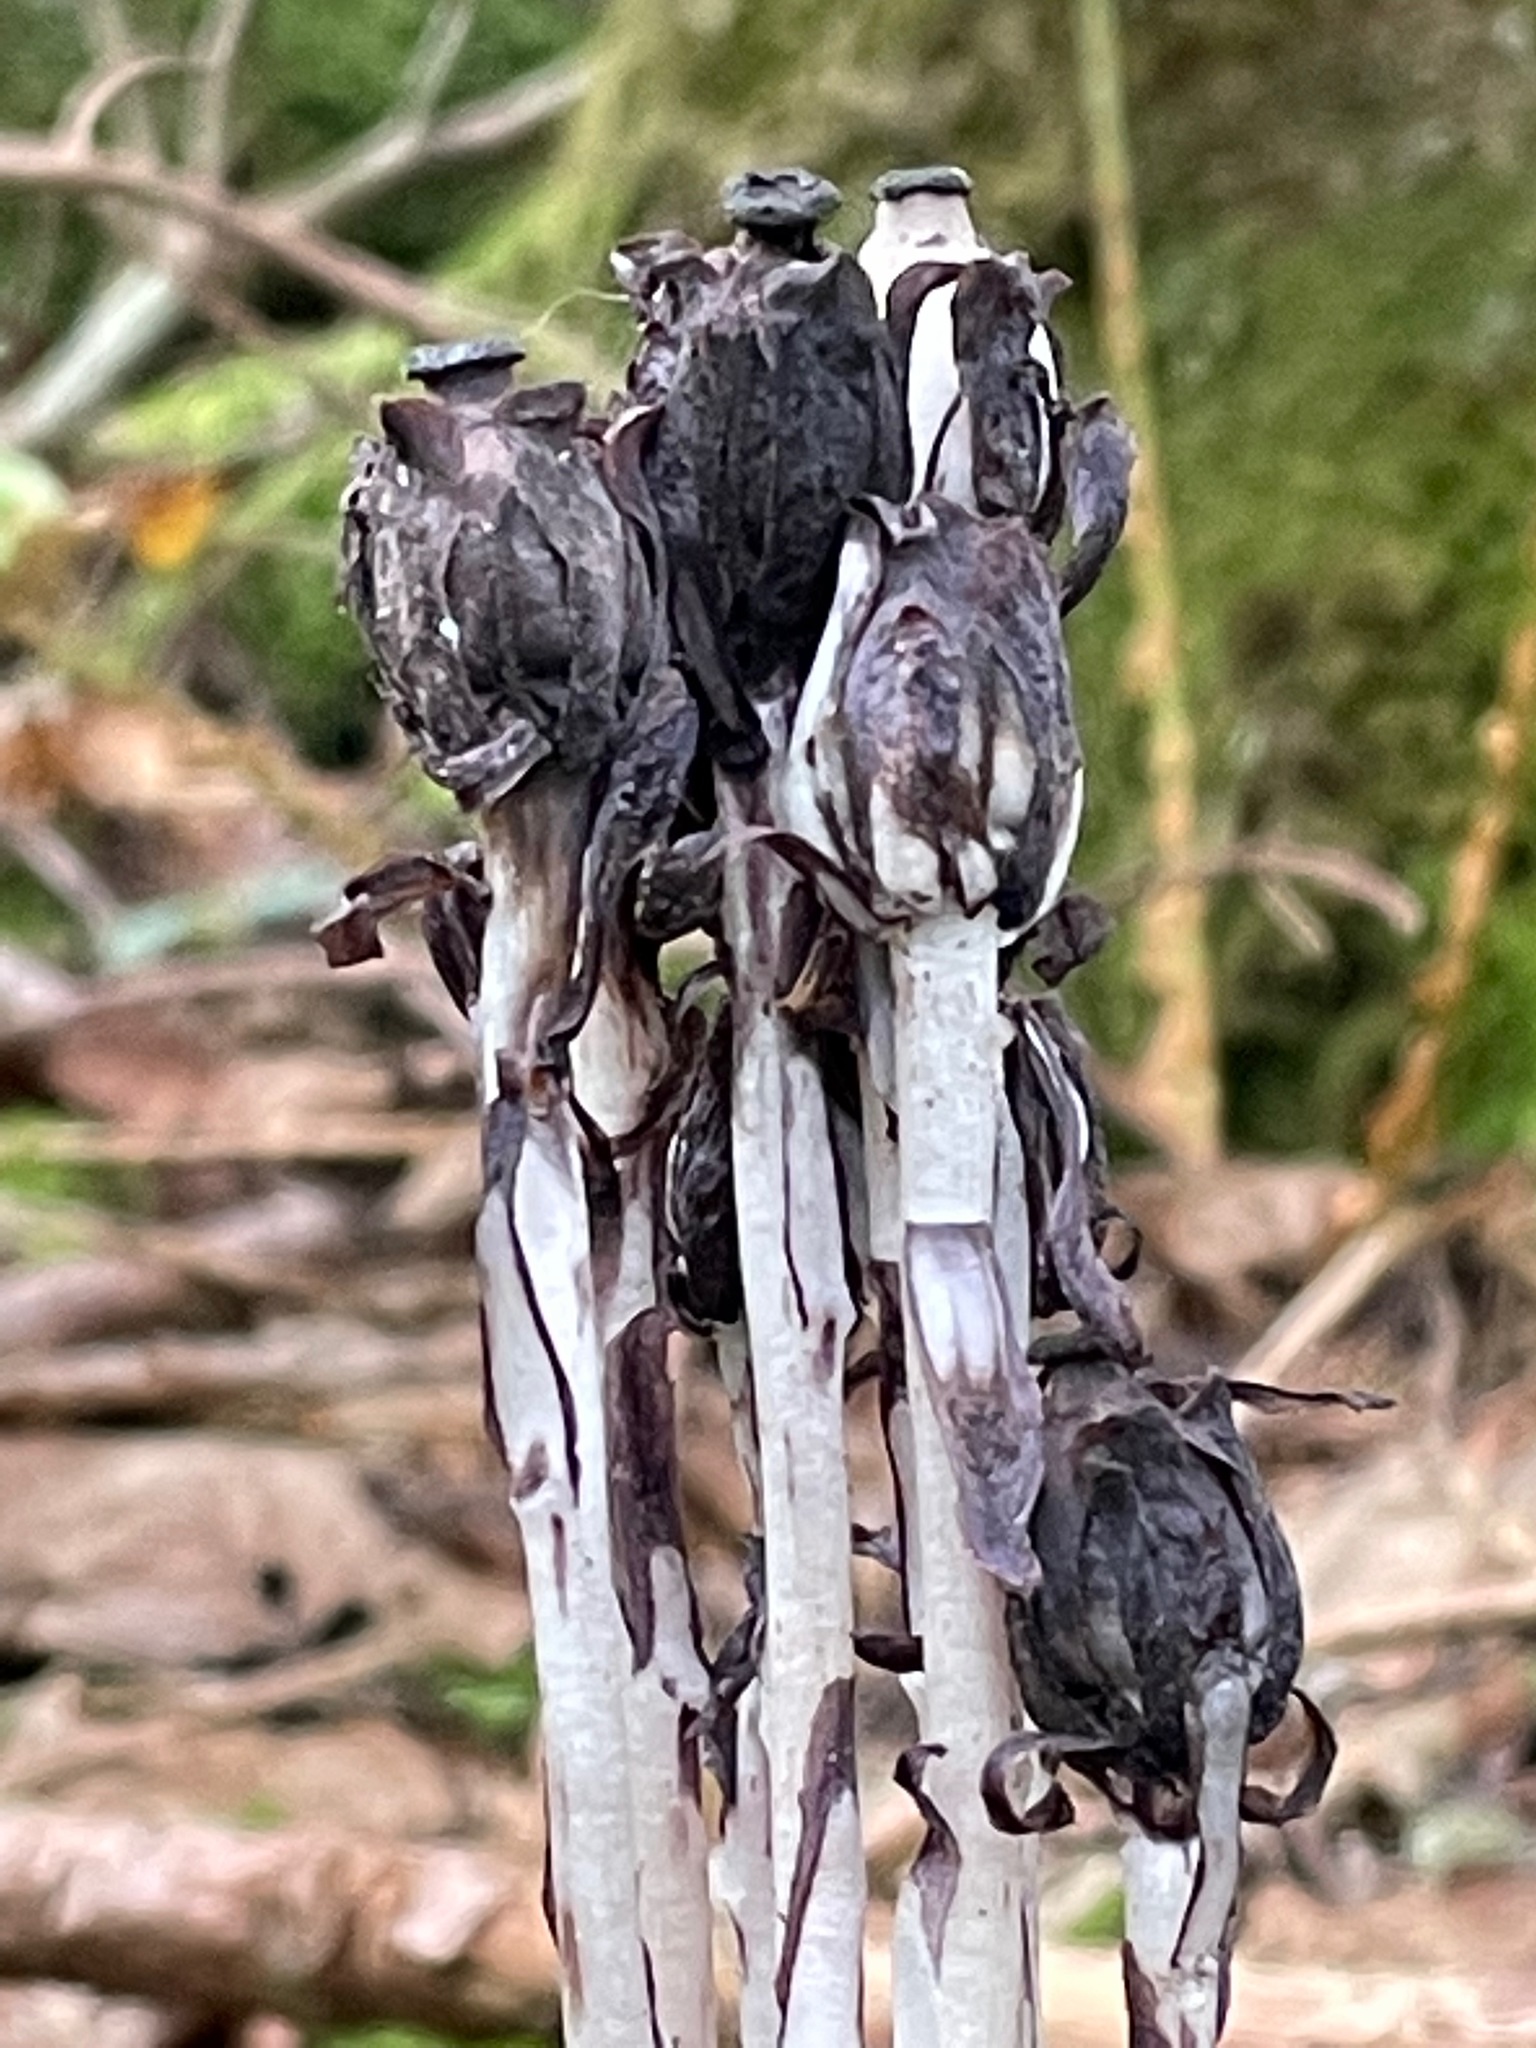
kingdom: Plantae
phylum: Tracheophyta
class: Magnoliopsida
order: Ericales
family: Ericaceae
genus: Monotropa
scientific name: Monotropa uniflora
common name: Convulsion root
